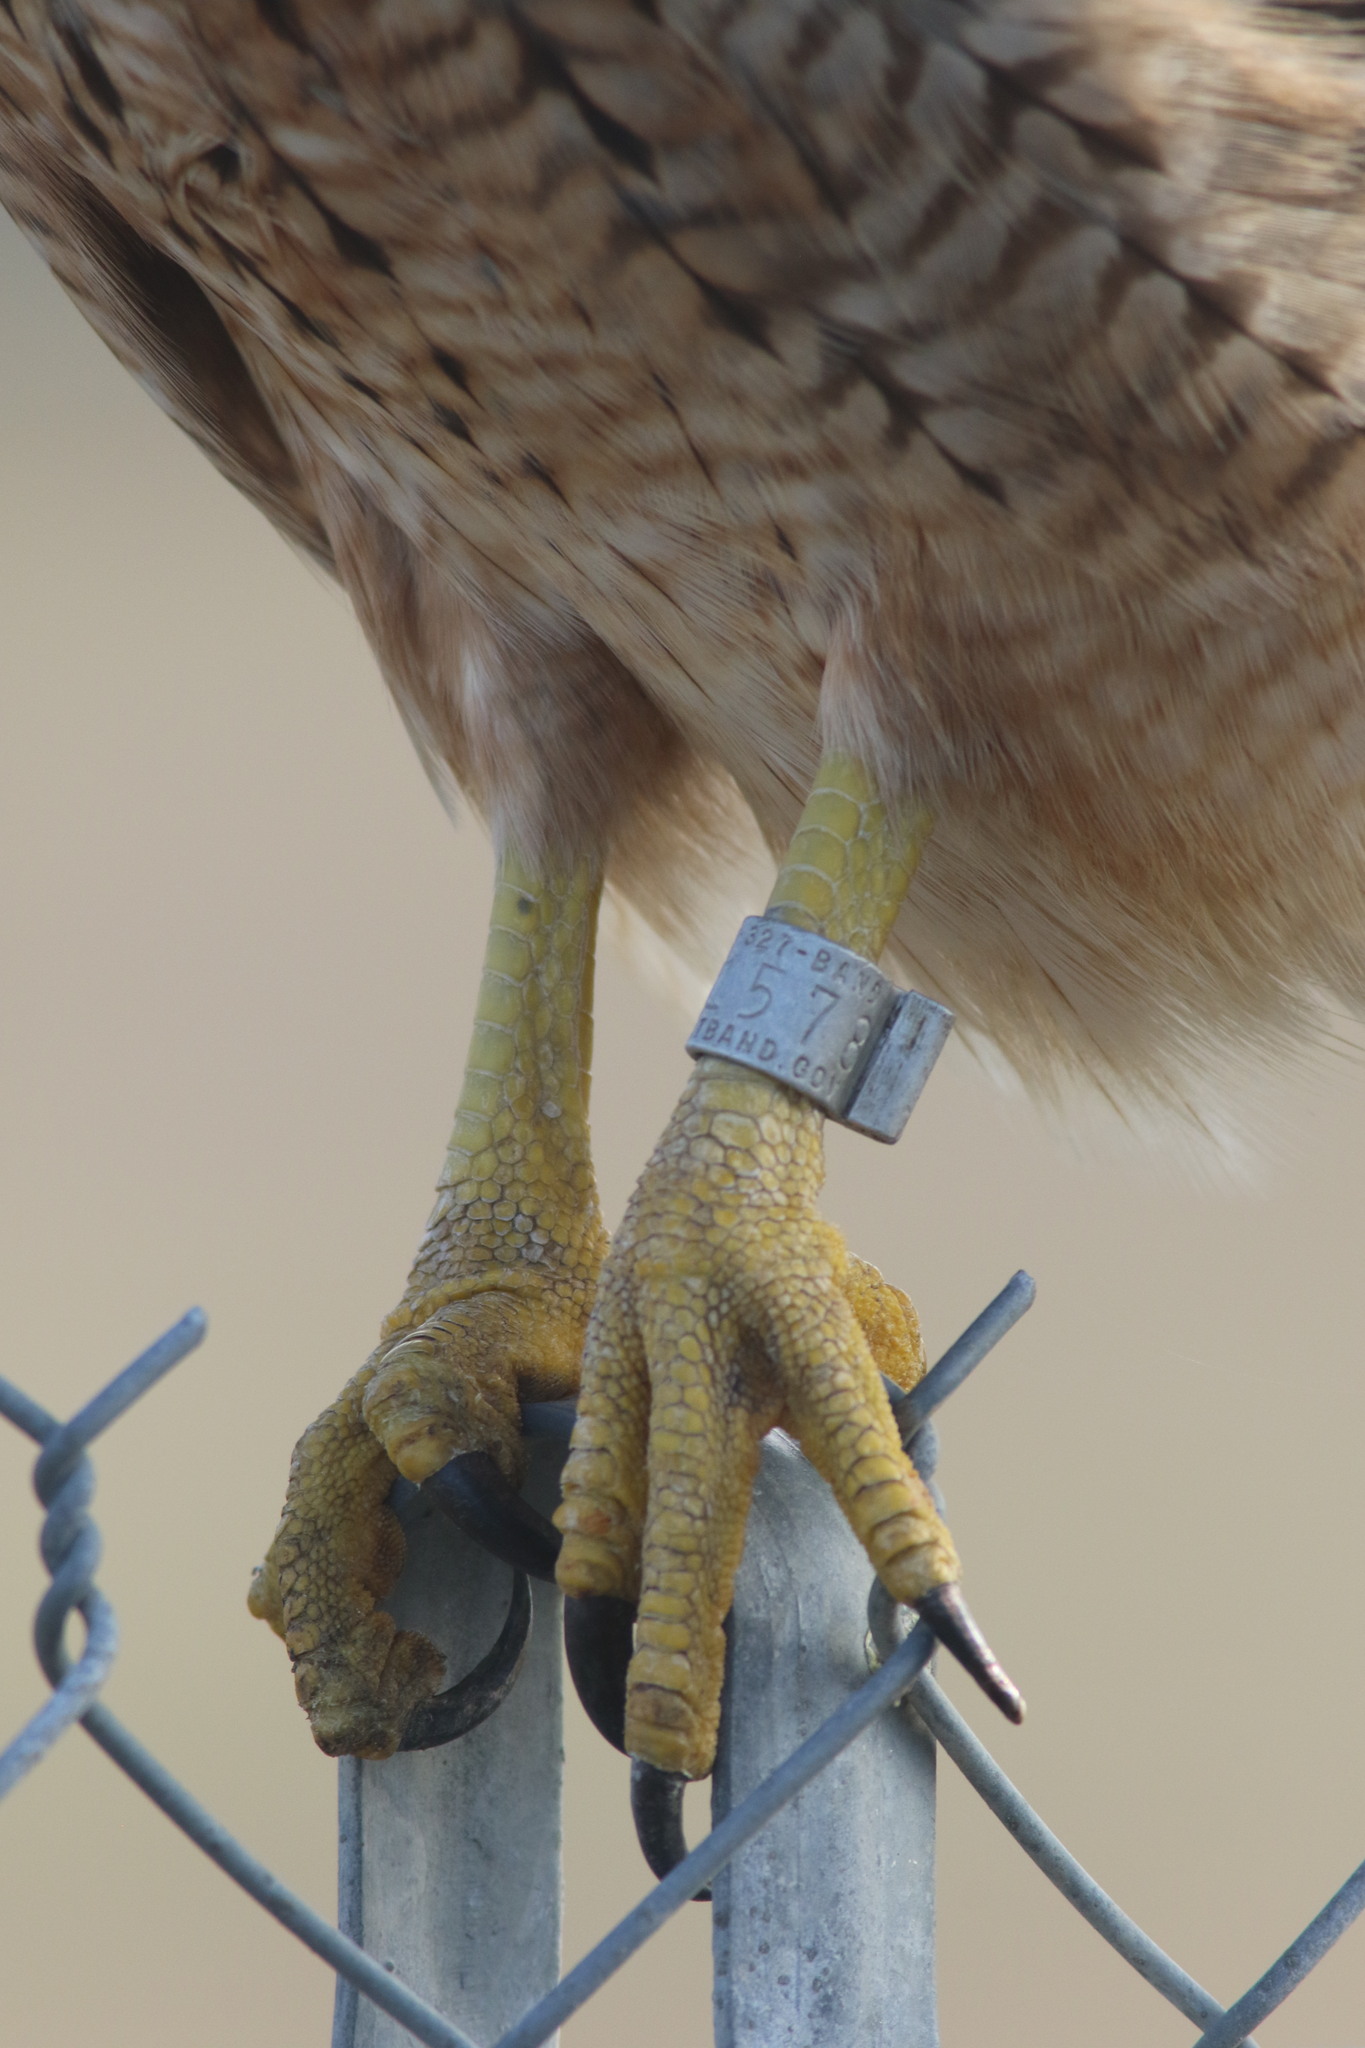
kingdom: Animalia
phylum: Chordata
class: Aves
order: Accipitriformes
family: Accipitridae
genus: Buteo
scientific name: Buteo jamaicensis
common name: Red-tailed hawk
